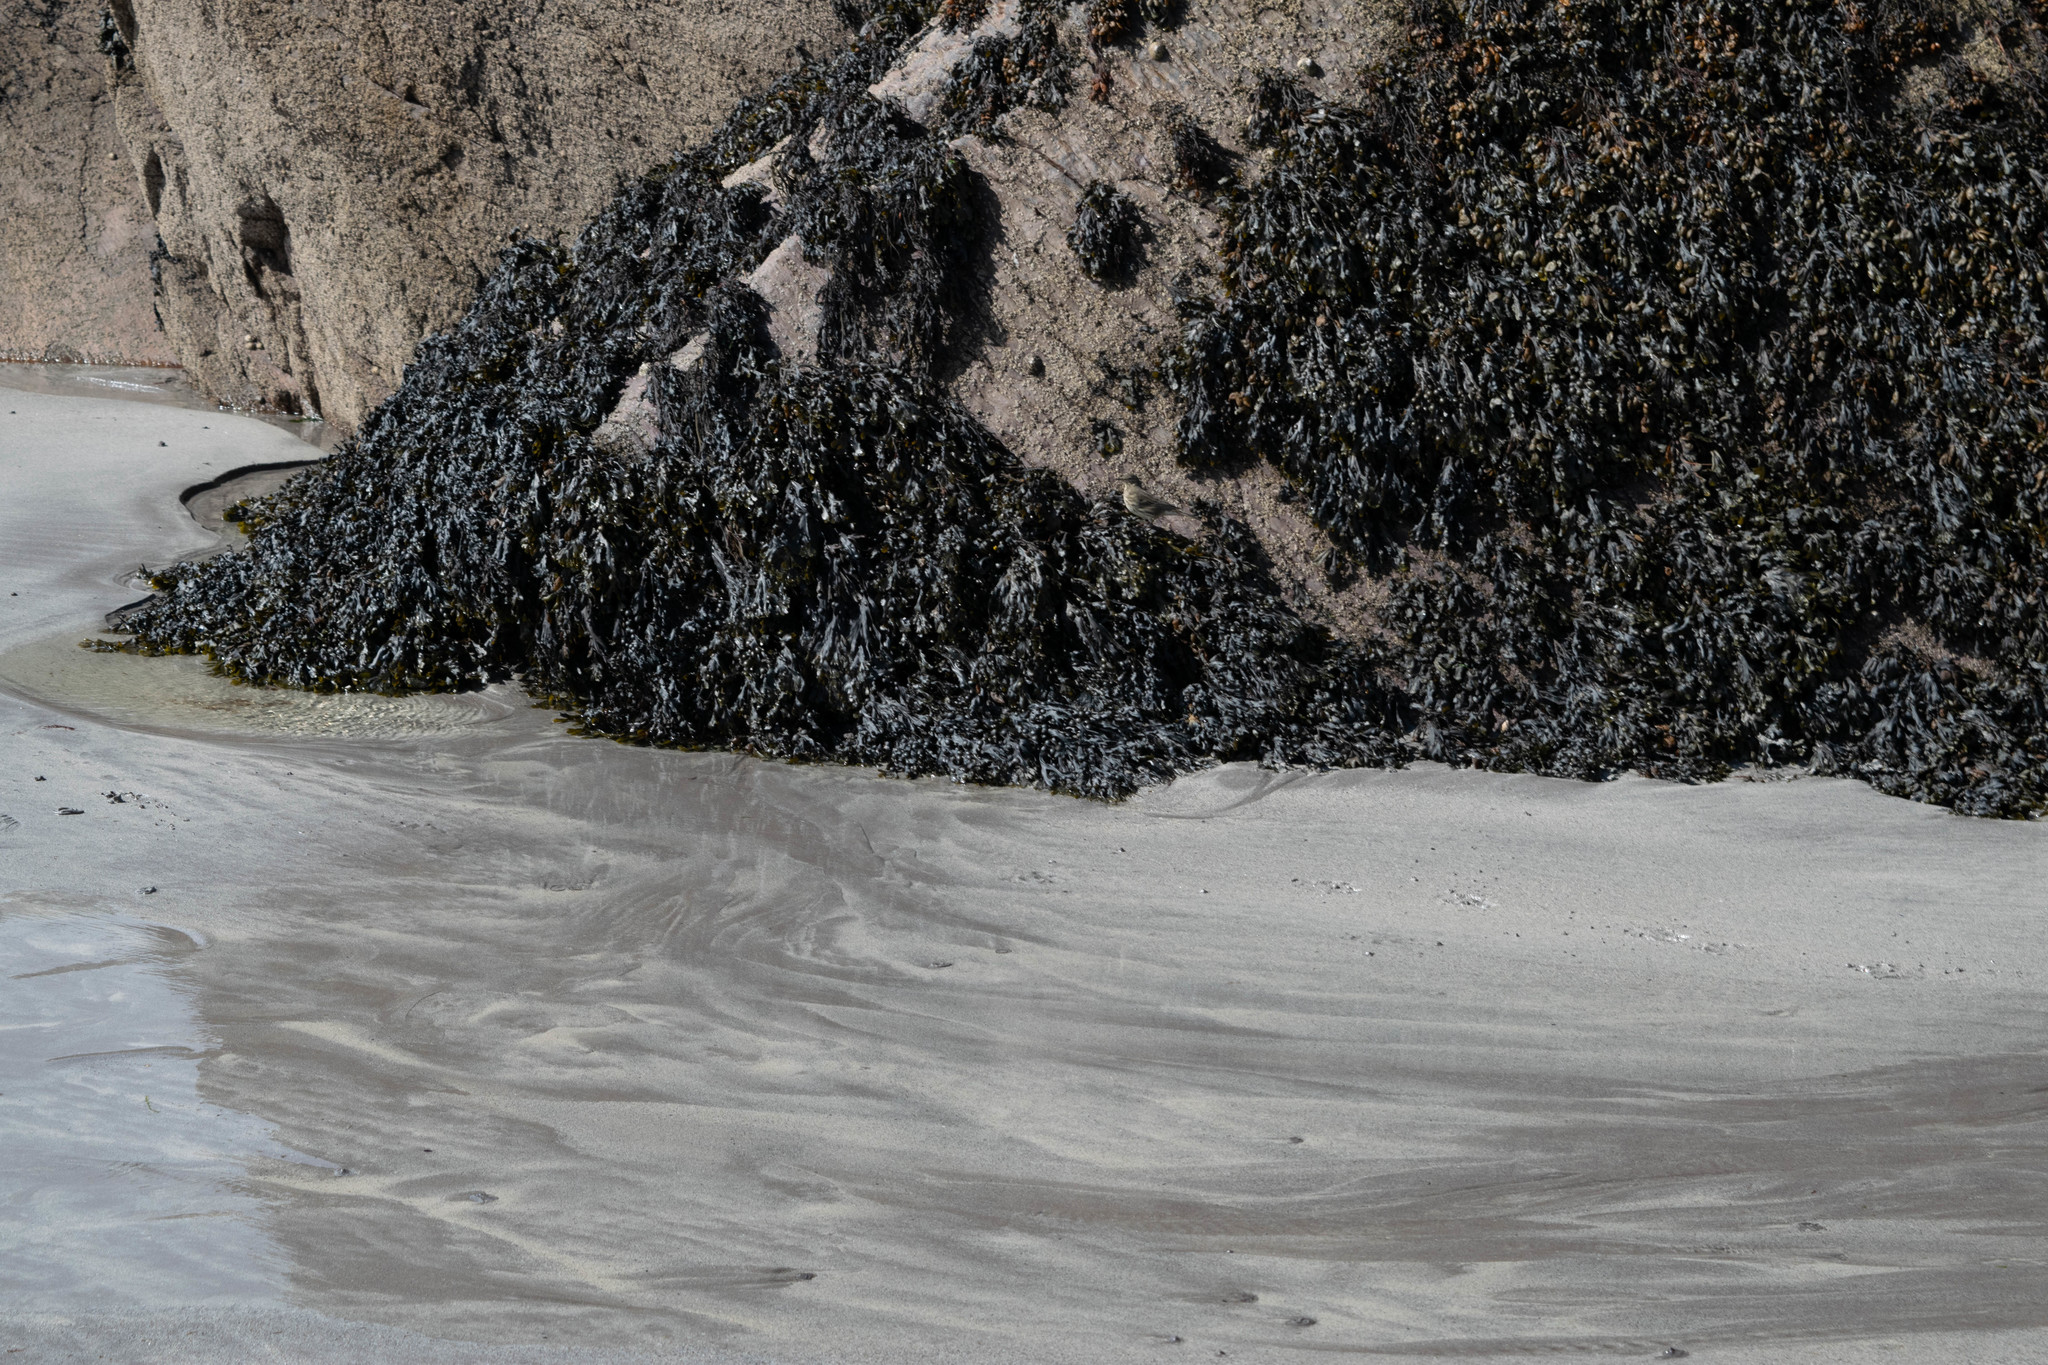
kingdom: Chromista
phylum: Ochrophyta
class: Phaeophyceae
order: Fucales
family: Fucaceae
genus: Fucus
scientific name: Fucus vesiculosus
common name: Bladder wrack
